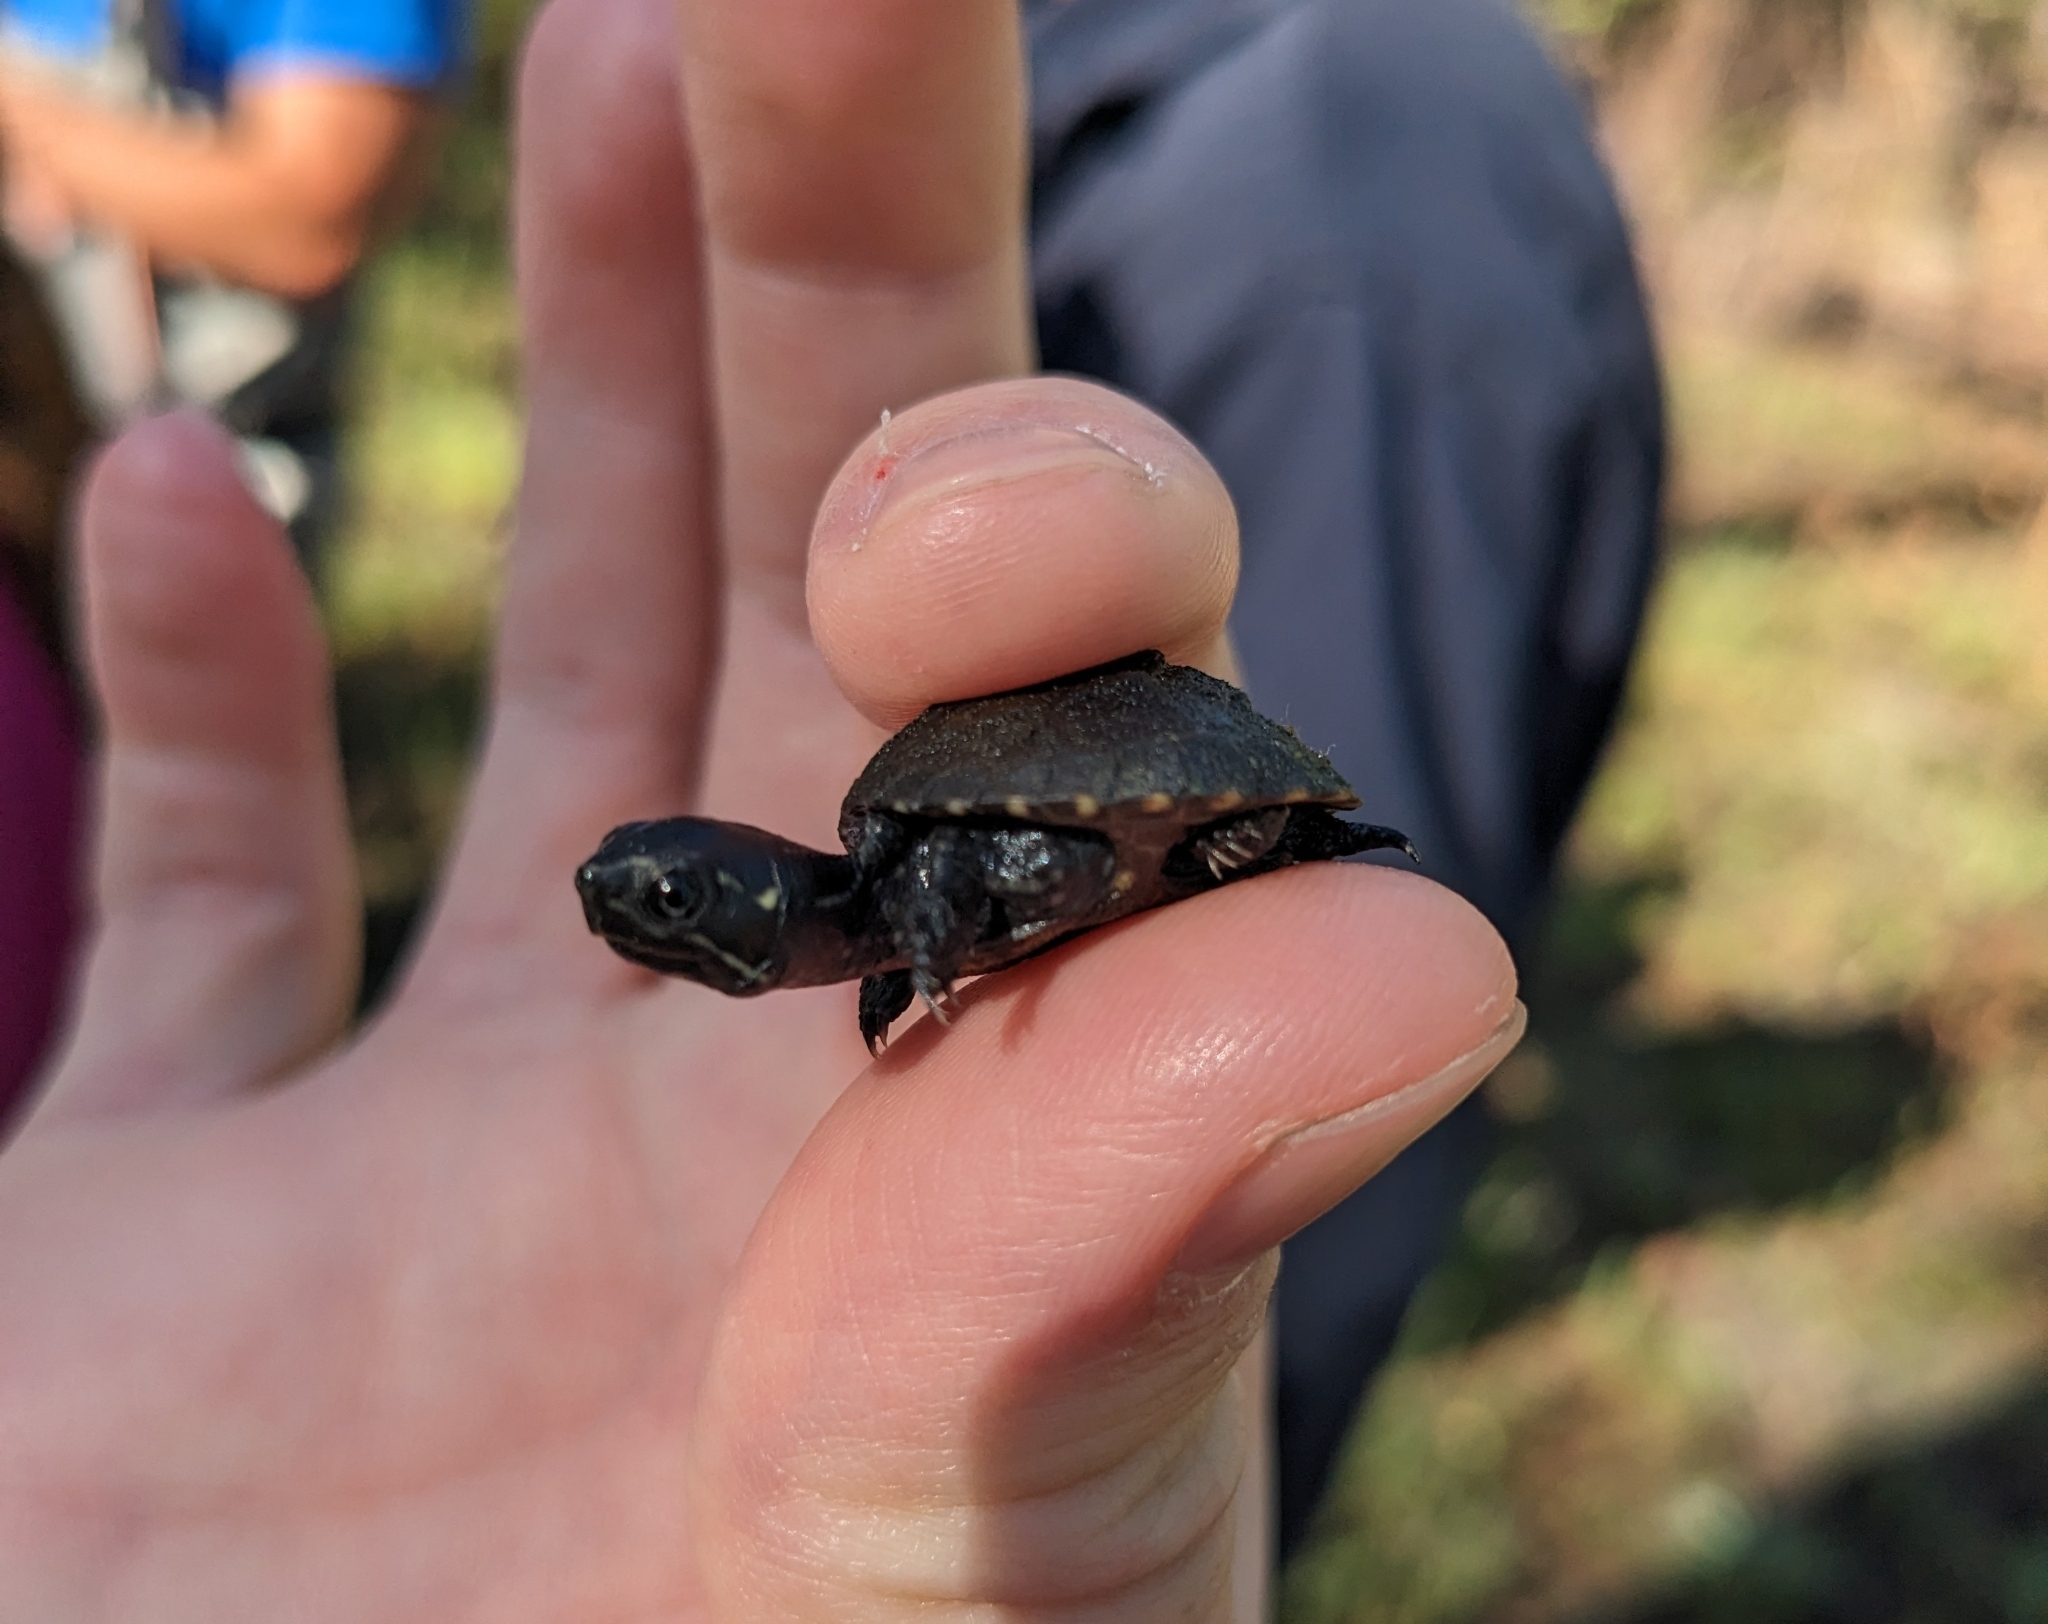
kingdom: Animalia
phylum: Chordata
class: Testudines
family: Kinosternidae
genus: Sternotherus
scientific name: Sternotherus odoratus
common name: Common musk turtle
